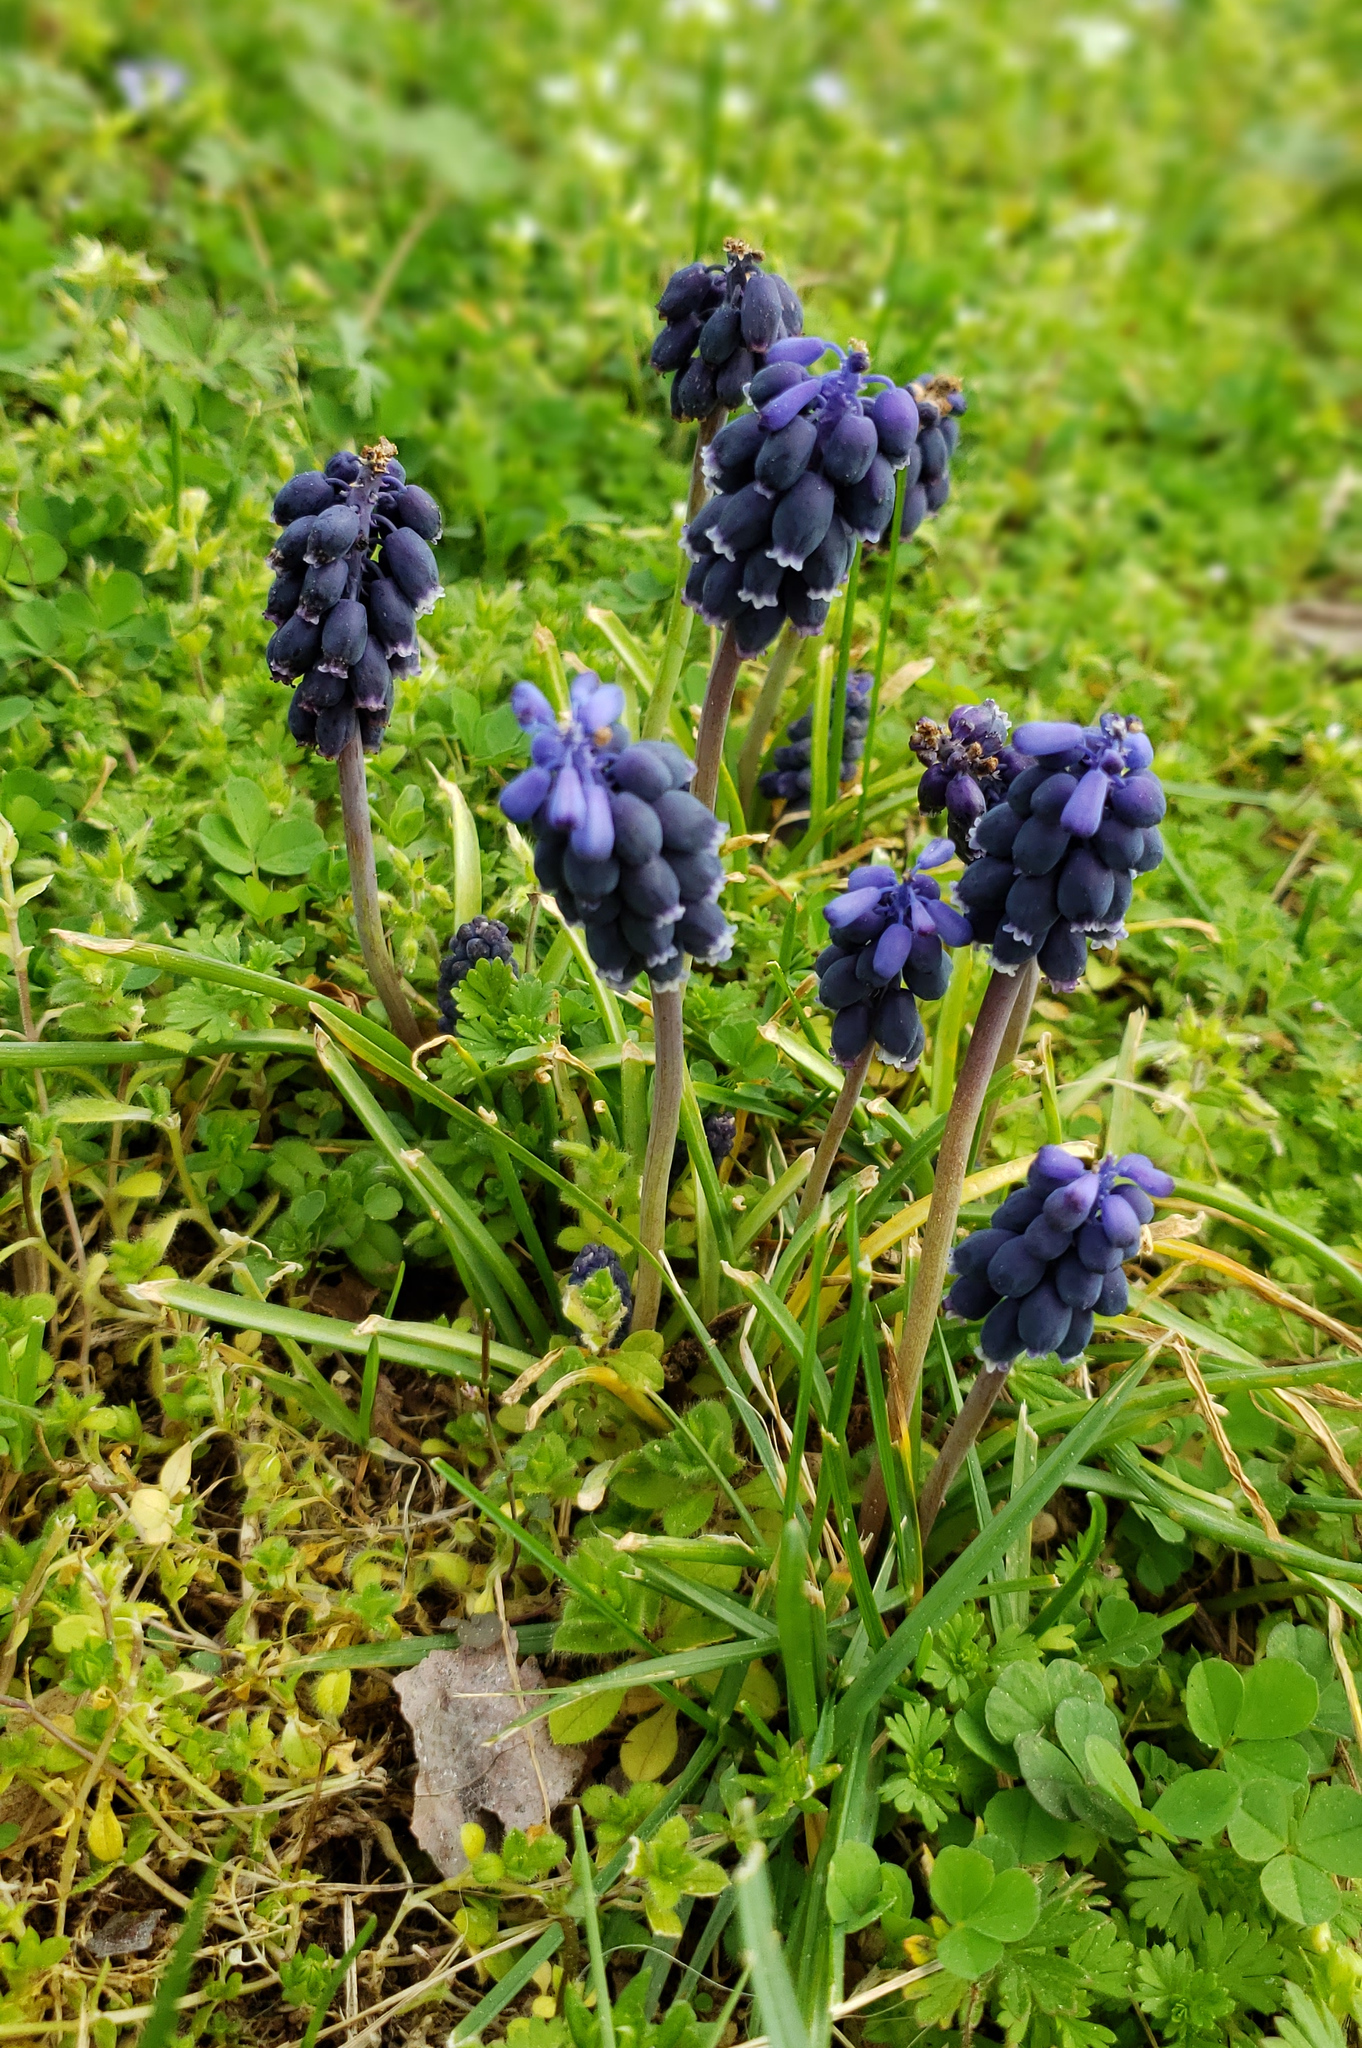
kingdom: Plantae
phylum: Tracheophyta
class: Liliopsida
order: Asparagales
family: Asparagaceae
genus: Muscari
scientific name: Muscari neglectum
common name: Grape-hyacinth
